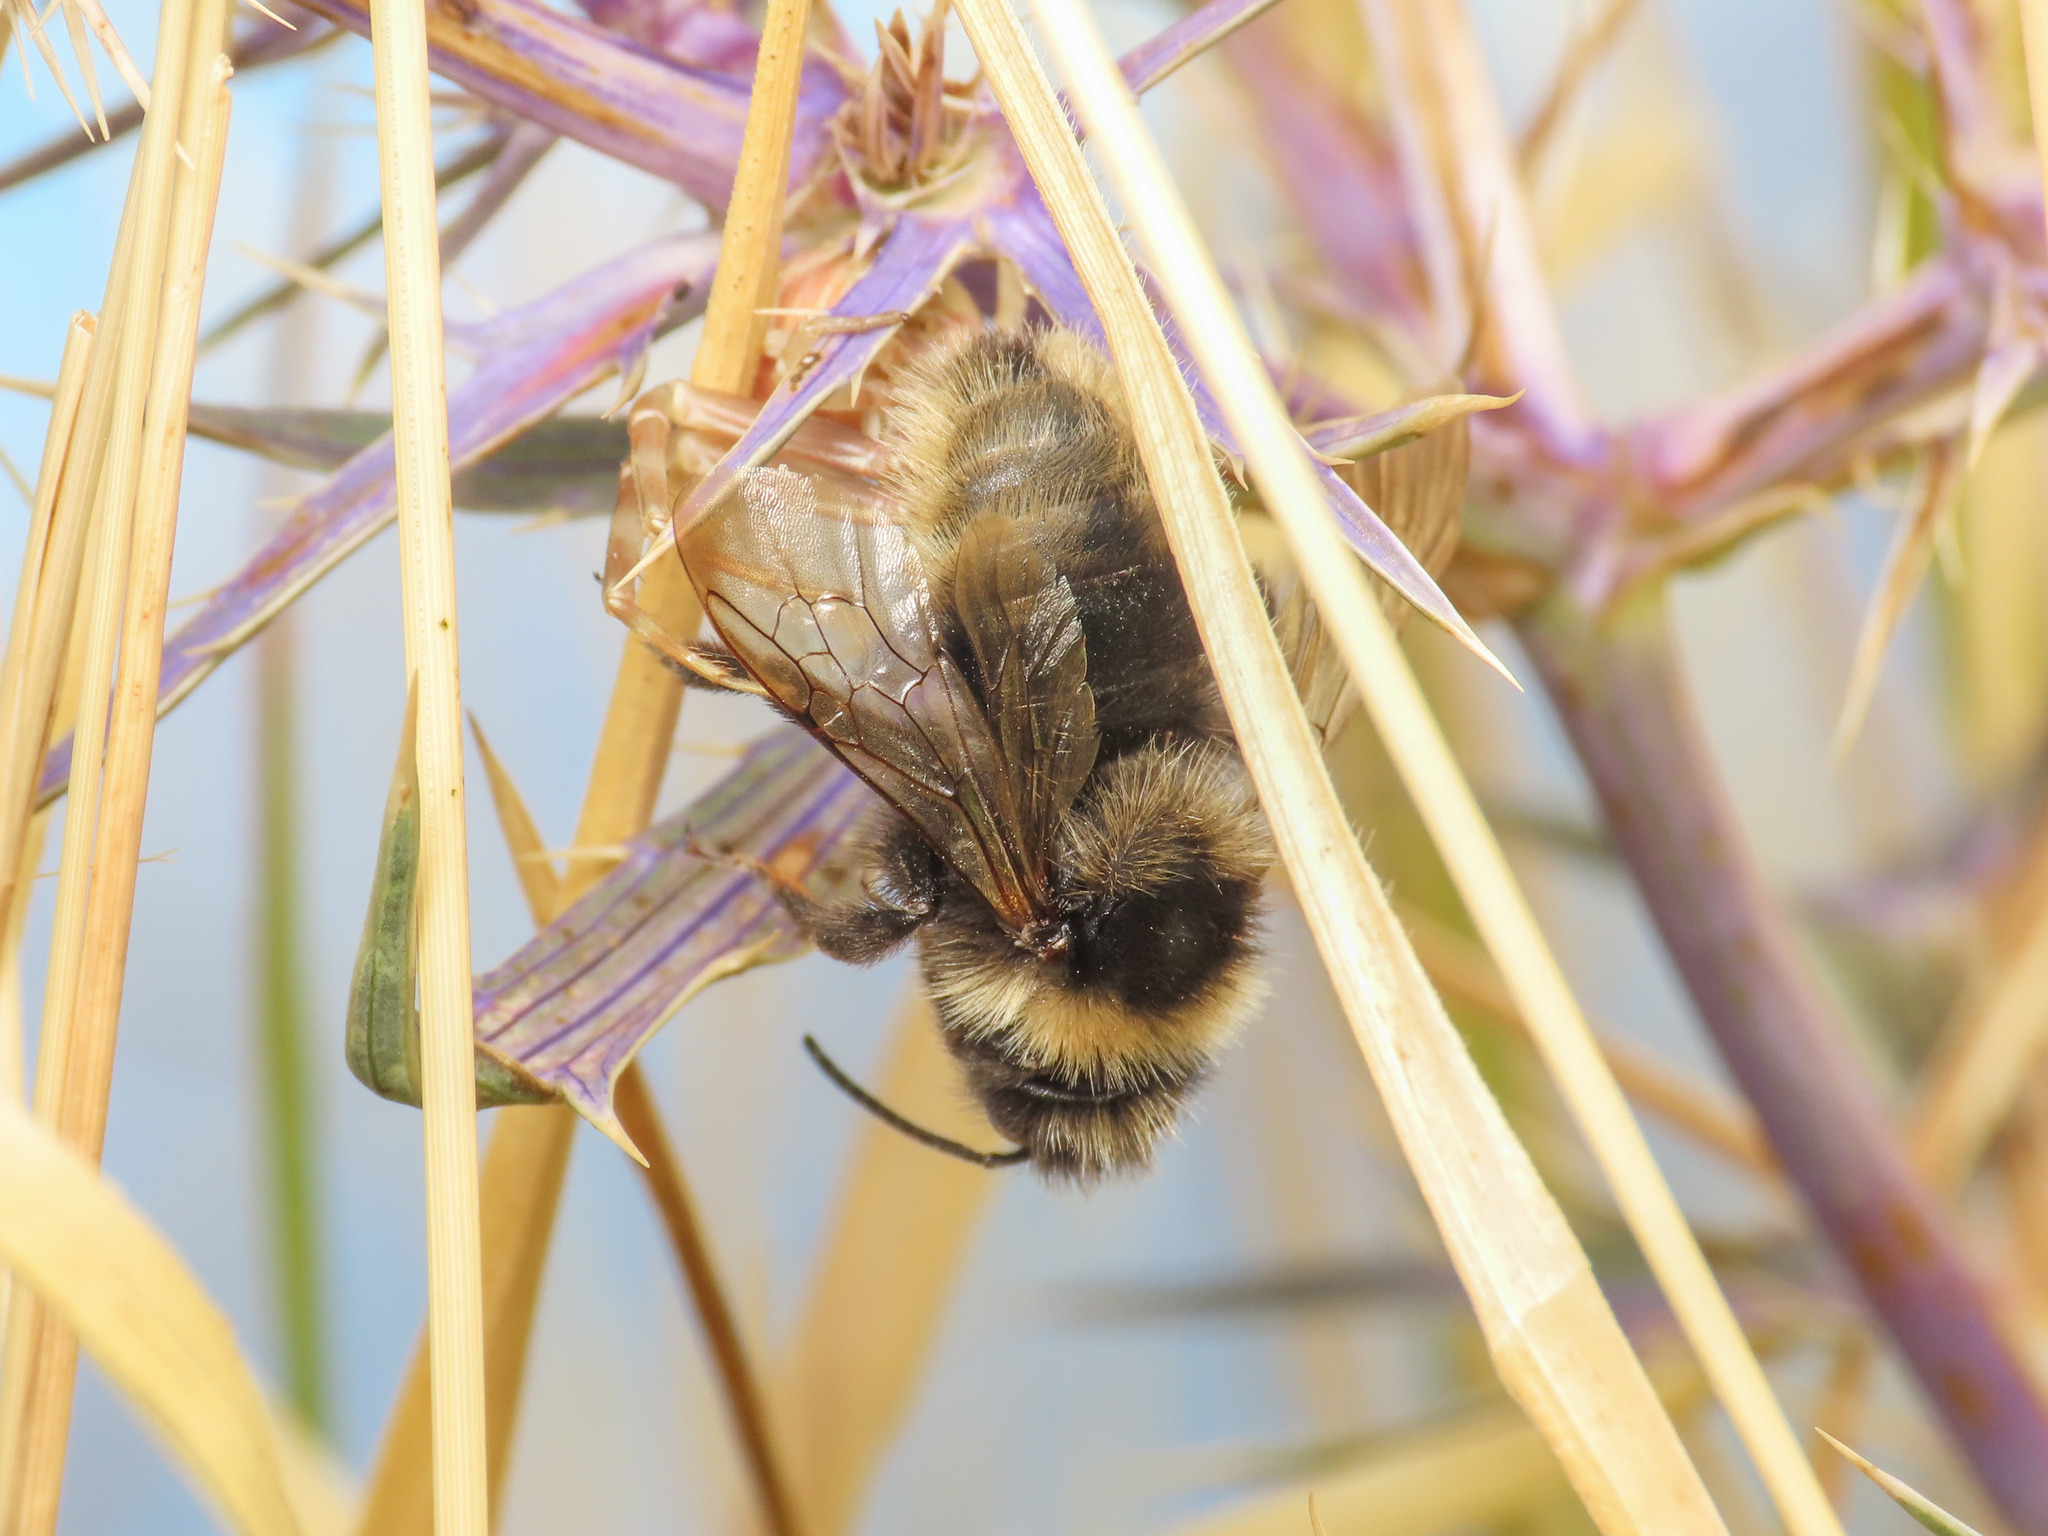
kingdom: Animalia
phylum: Arthropoda
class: Insecta
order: Hymenoptera
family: Apidae
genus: Bombus
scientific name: Bombus campestris
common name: Field cuckoo-bee
